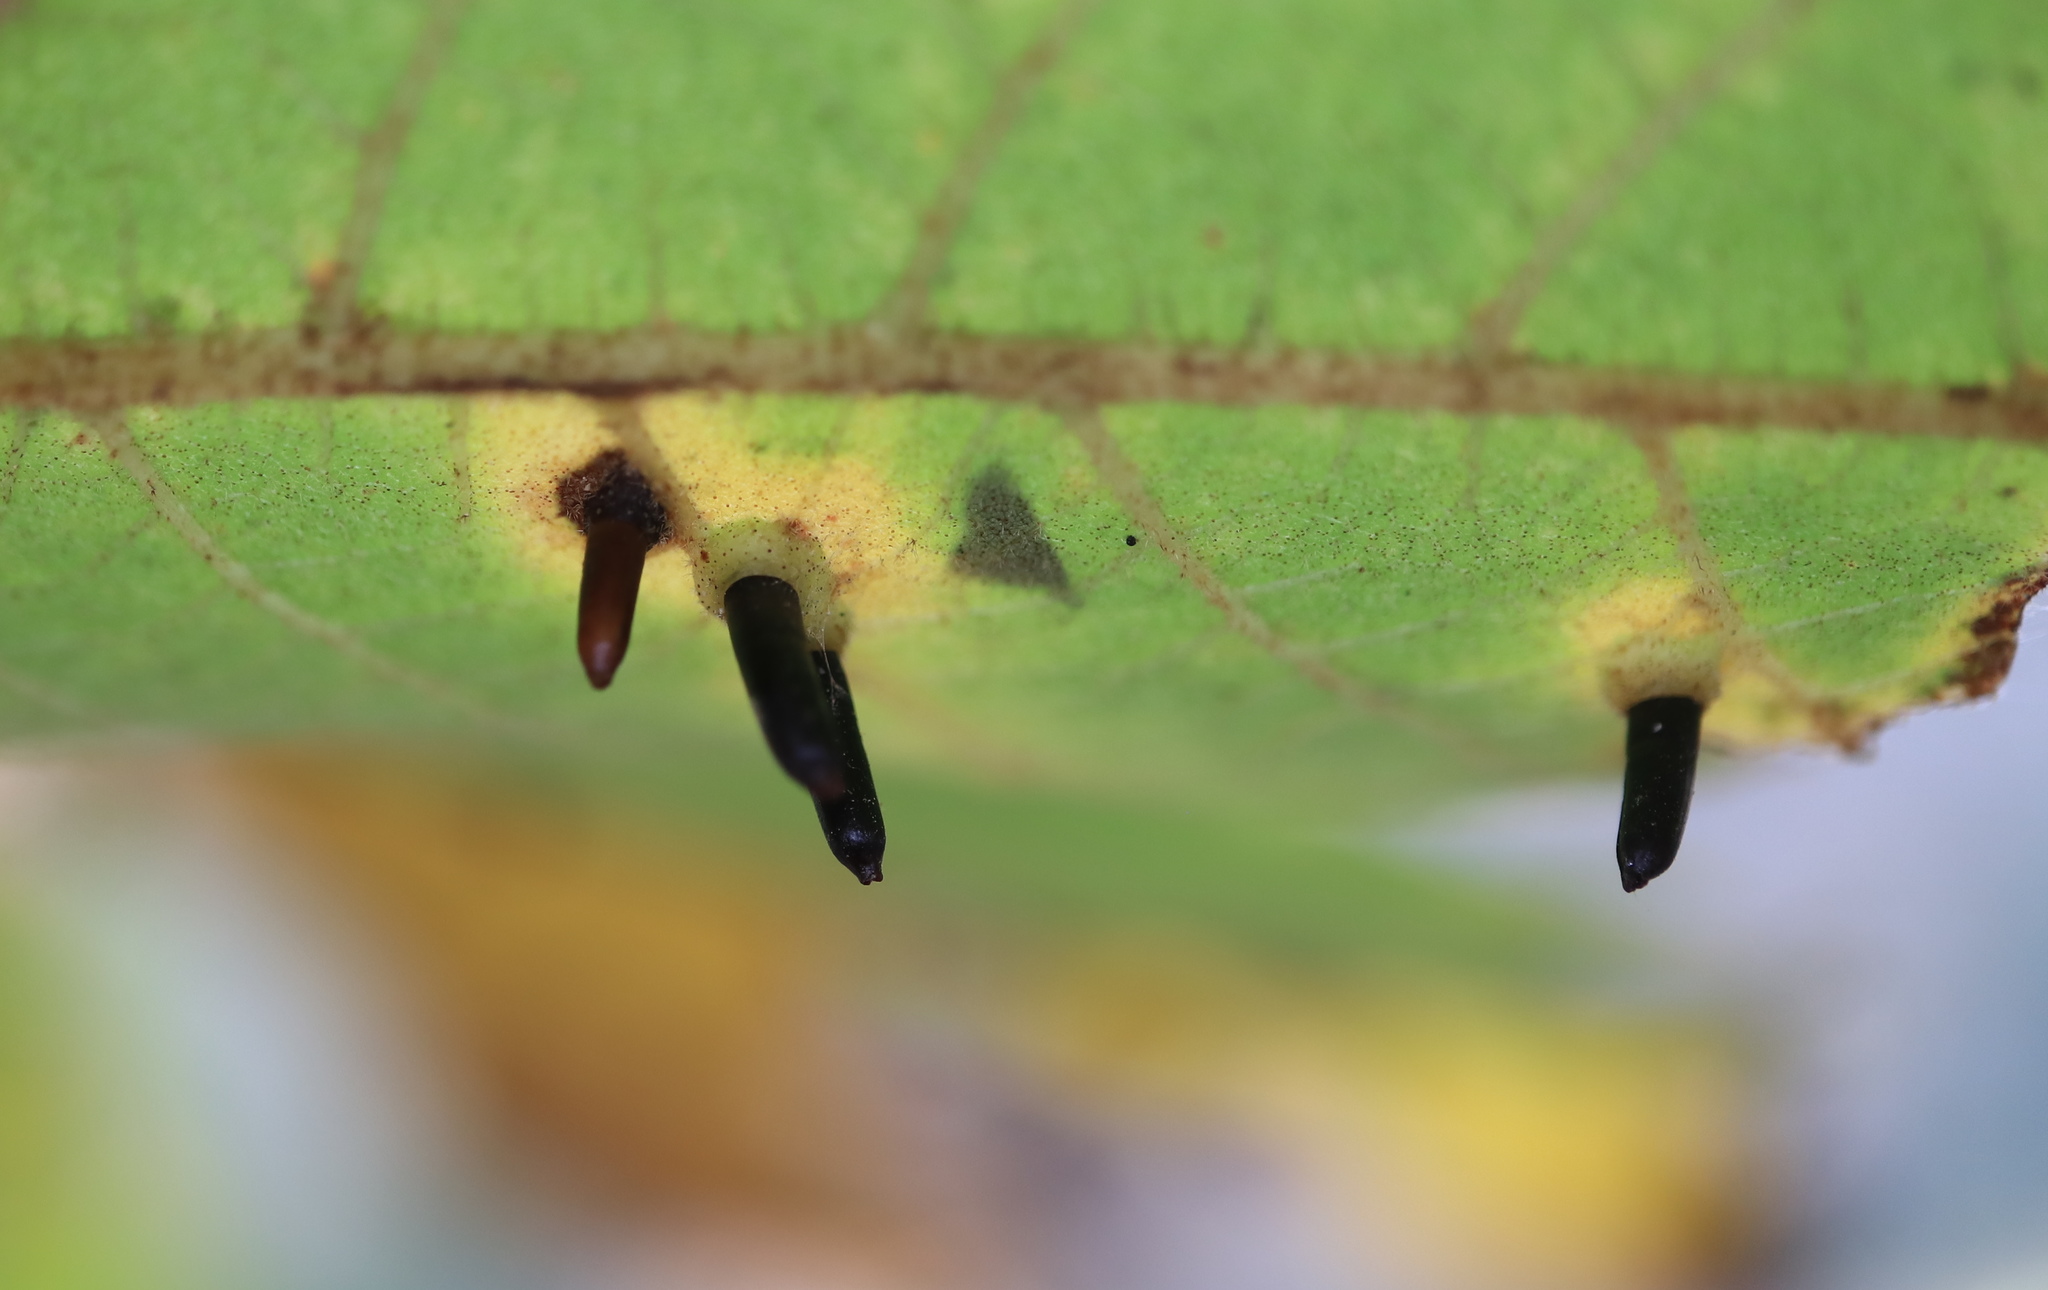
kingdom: Animalia
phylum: Arthropoda
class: Insecta
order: Diptera
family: Cecidomyiidae
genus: Caryomyia
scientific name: Caryomyia tubicola
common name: Hickory bullet gall midge
